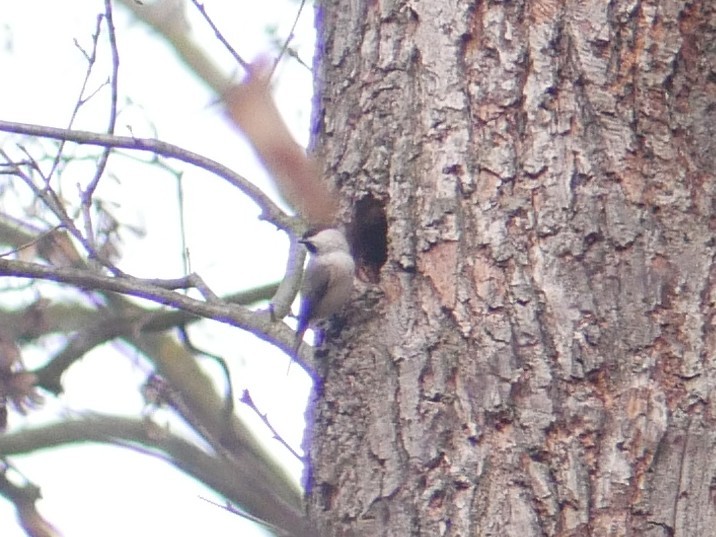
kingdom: Animalia
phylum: Chordata
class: Aves
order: Passeriformes
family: Paridae
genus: Poecile
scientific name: Poecile palustris
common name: Marsh tit
